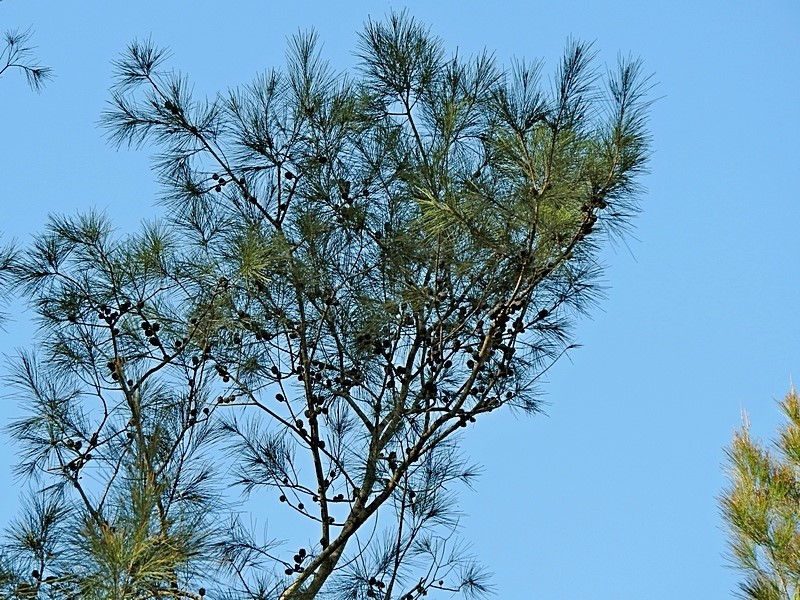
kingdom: Plantae
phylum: Tracheophyta
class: Magnoliopsida
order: Fagales
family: Casuarinaceae
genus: Allocasuarina
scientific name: Allocasuarina littoralis
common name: Black she-oak
